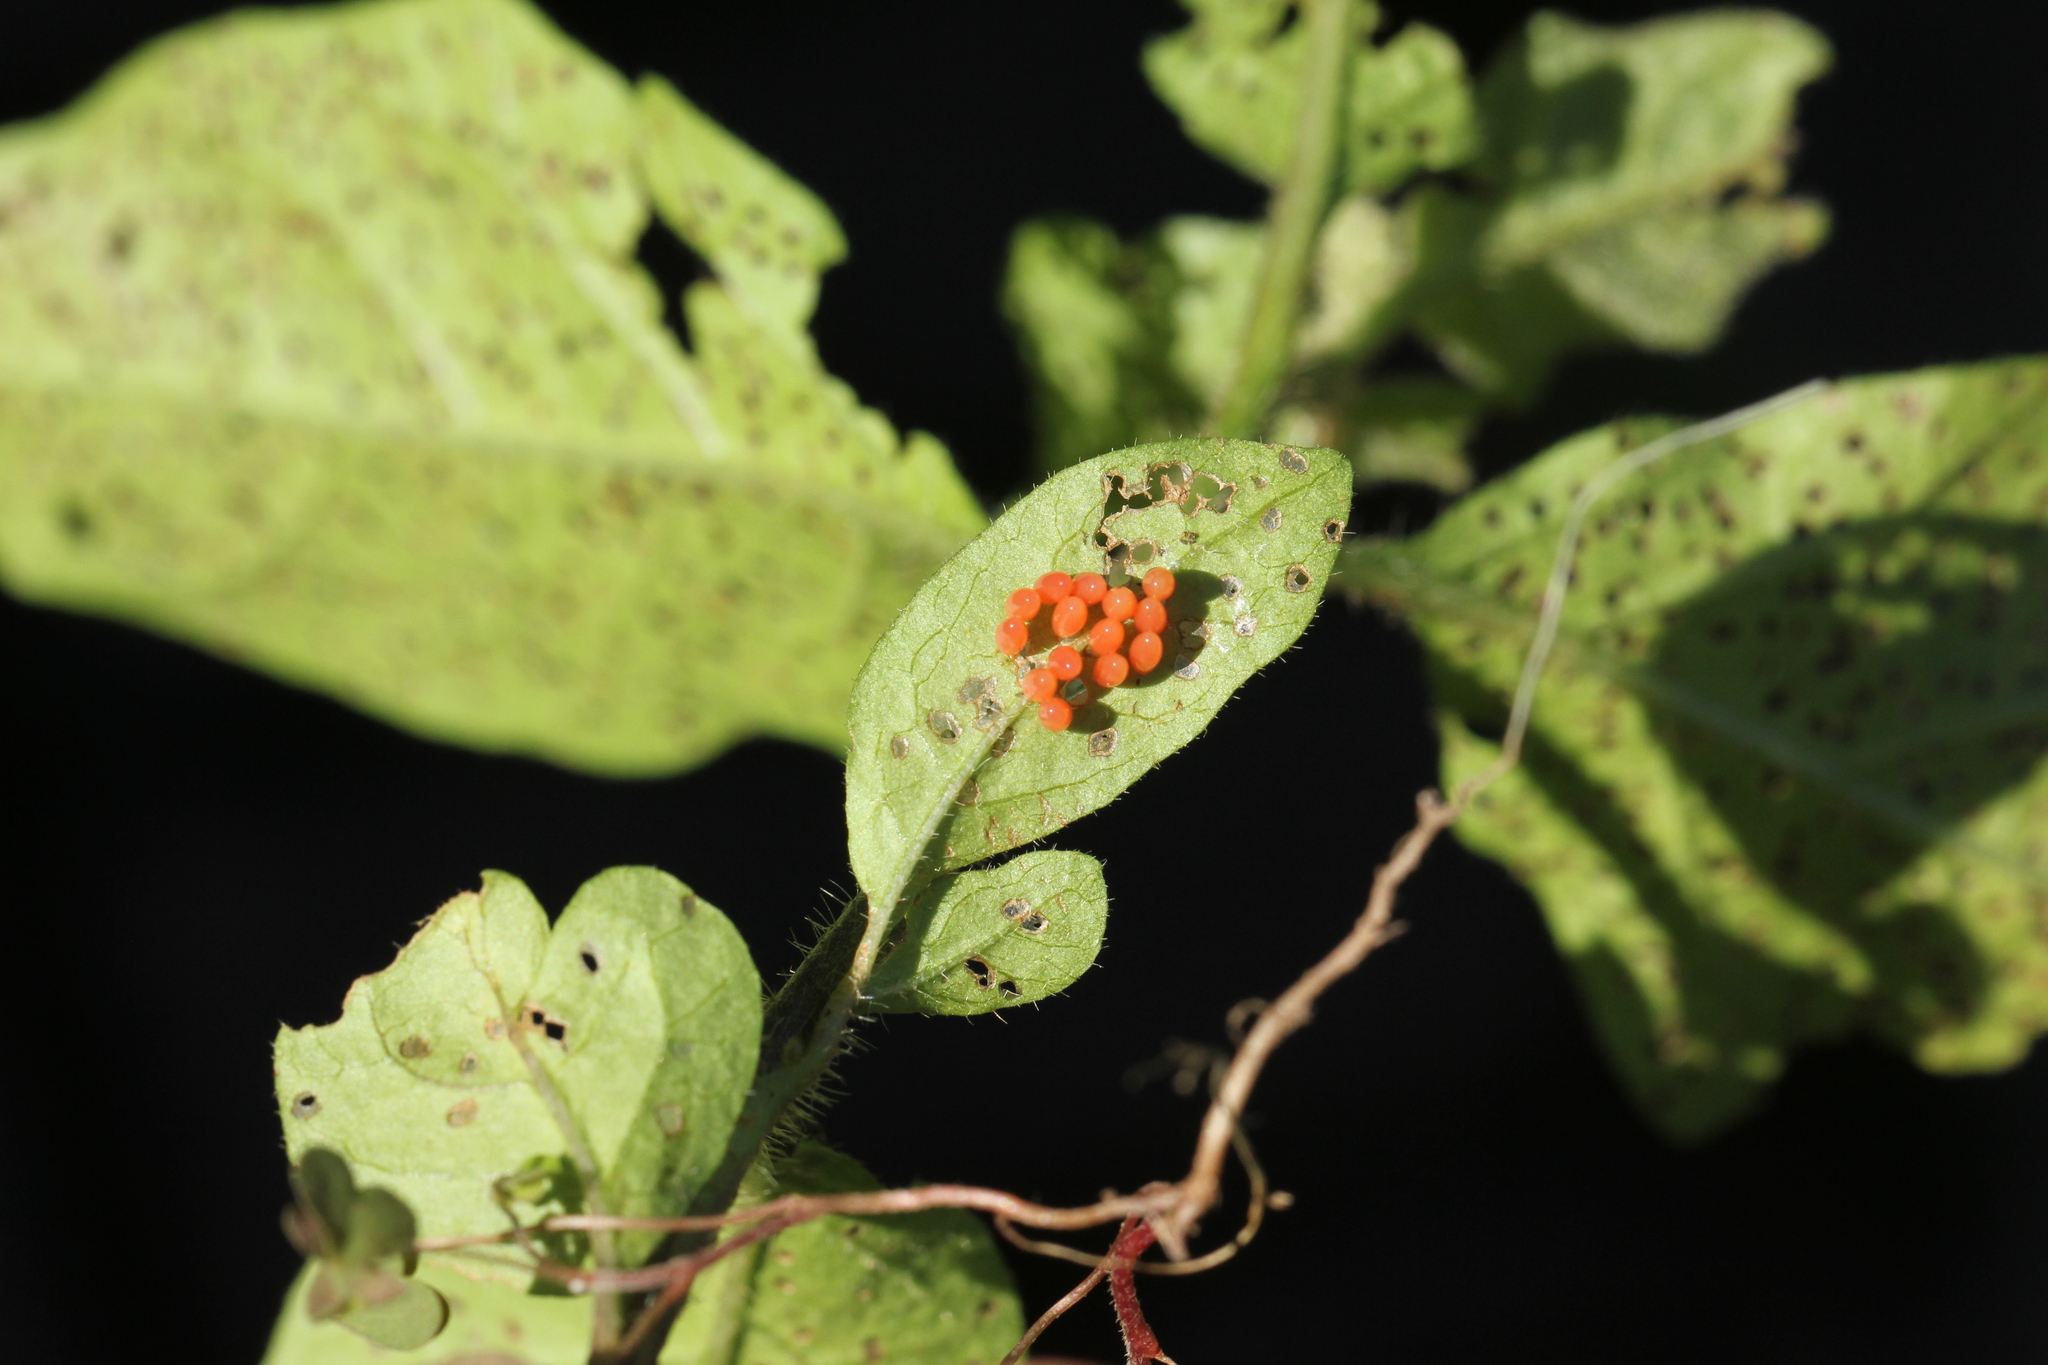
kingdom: Animalia
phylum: Arthropoda
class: Insecta
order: Coleoptera
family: Chrysomelidae
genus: Leptinotarsa
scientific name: Leptinotarsa juncta
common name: False potato beetle
